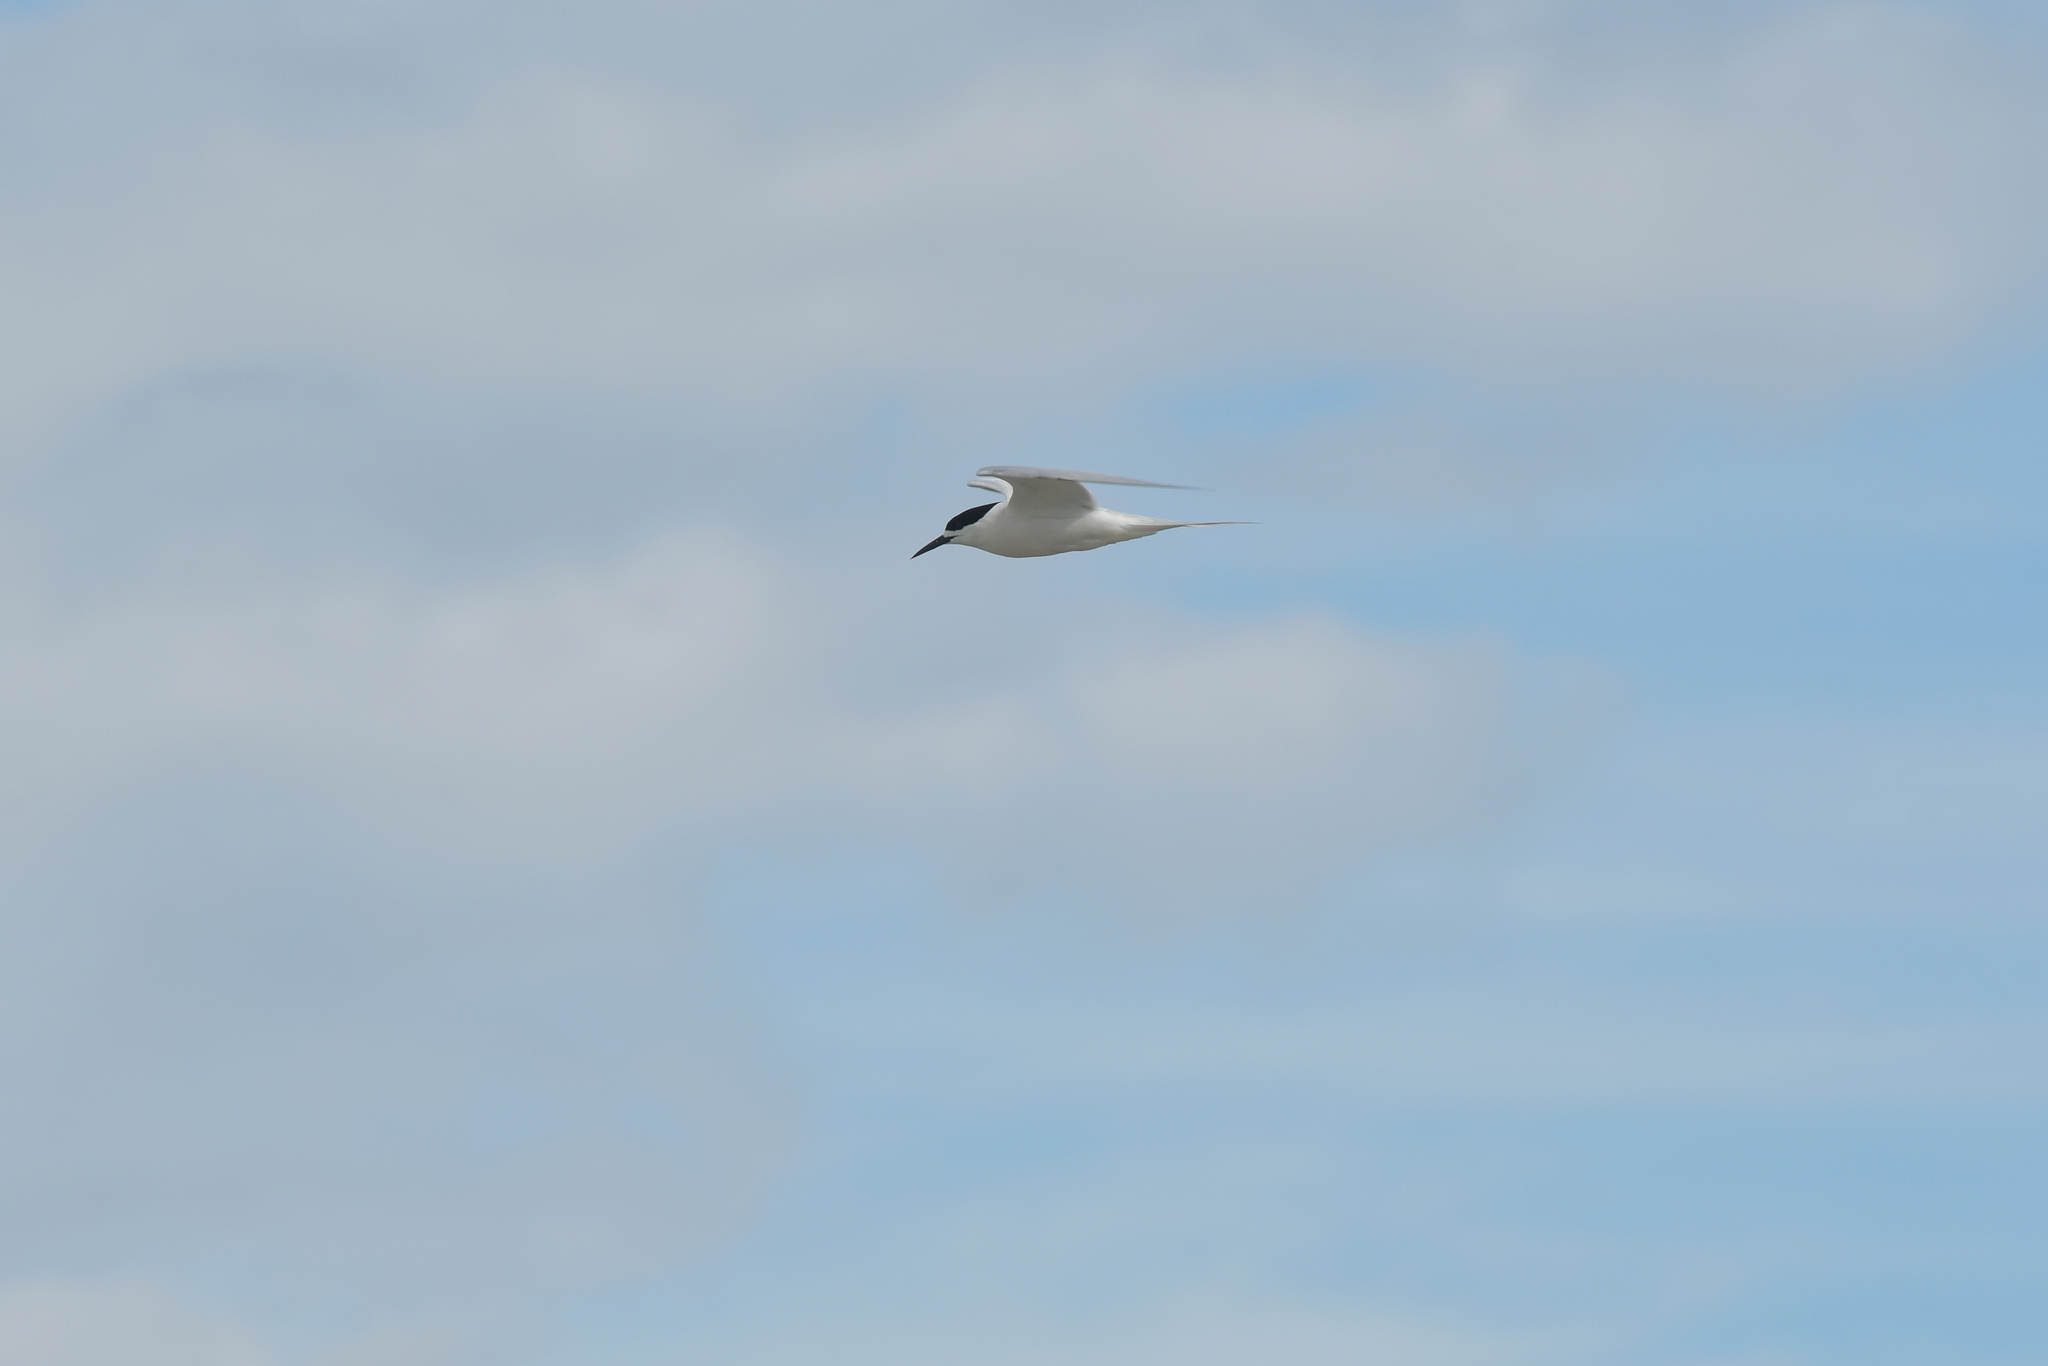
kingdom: Animalia
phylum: Chordata
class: Aves
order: Charadriiformes
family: Laridae
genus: Sterna
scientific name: Sterna striata
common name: White-fronted tern
